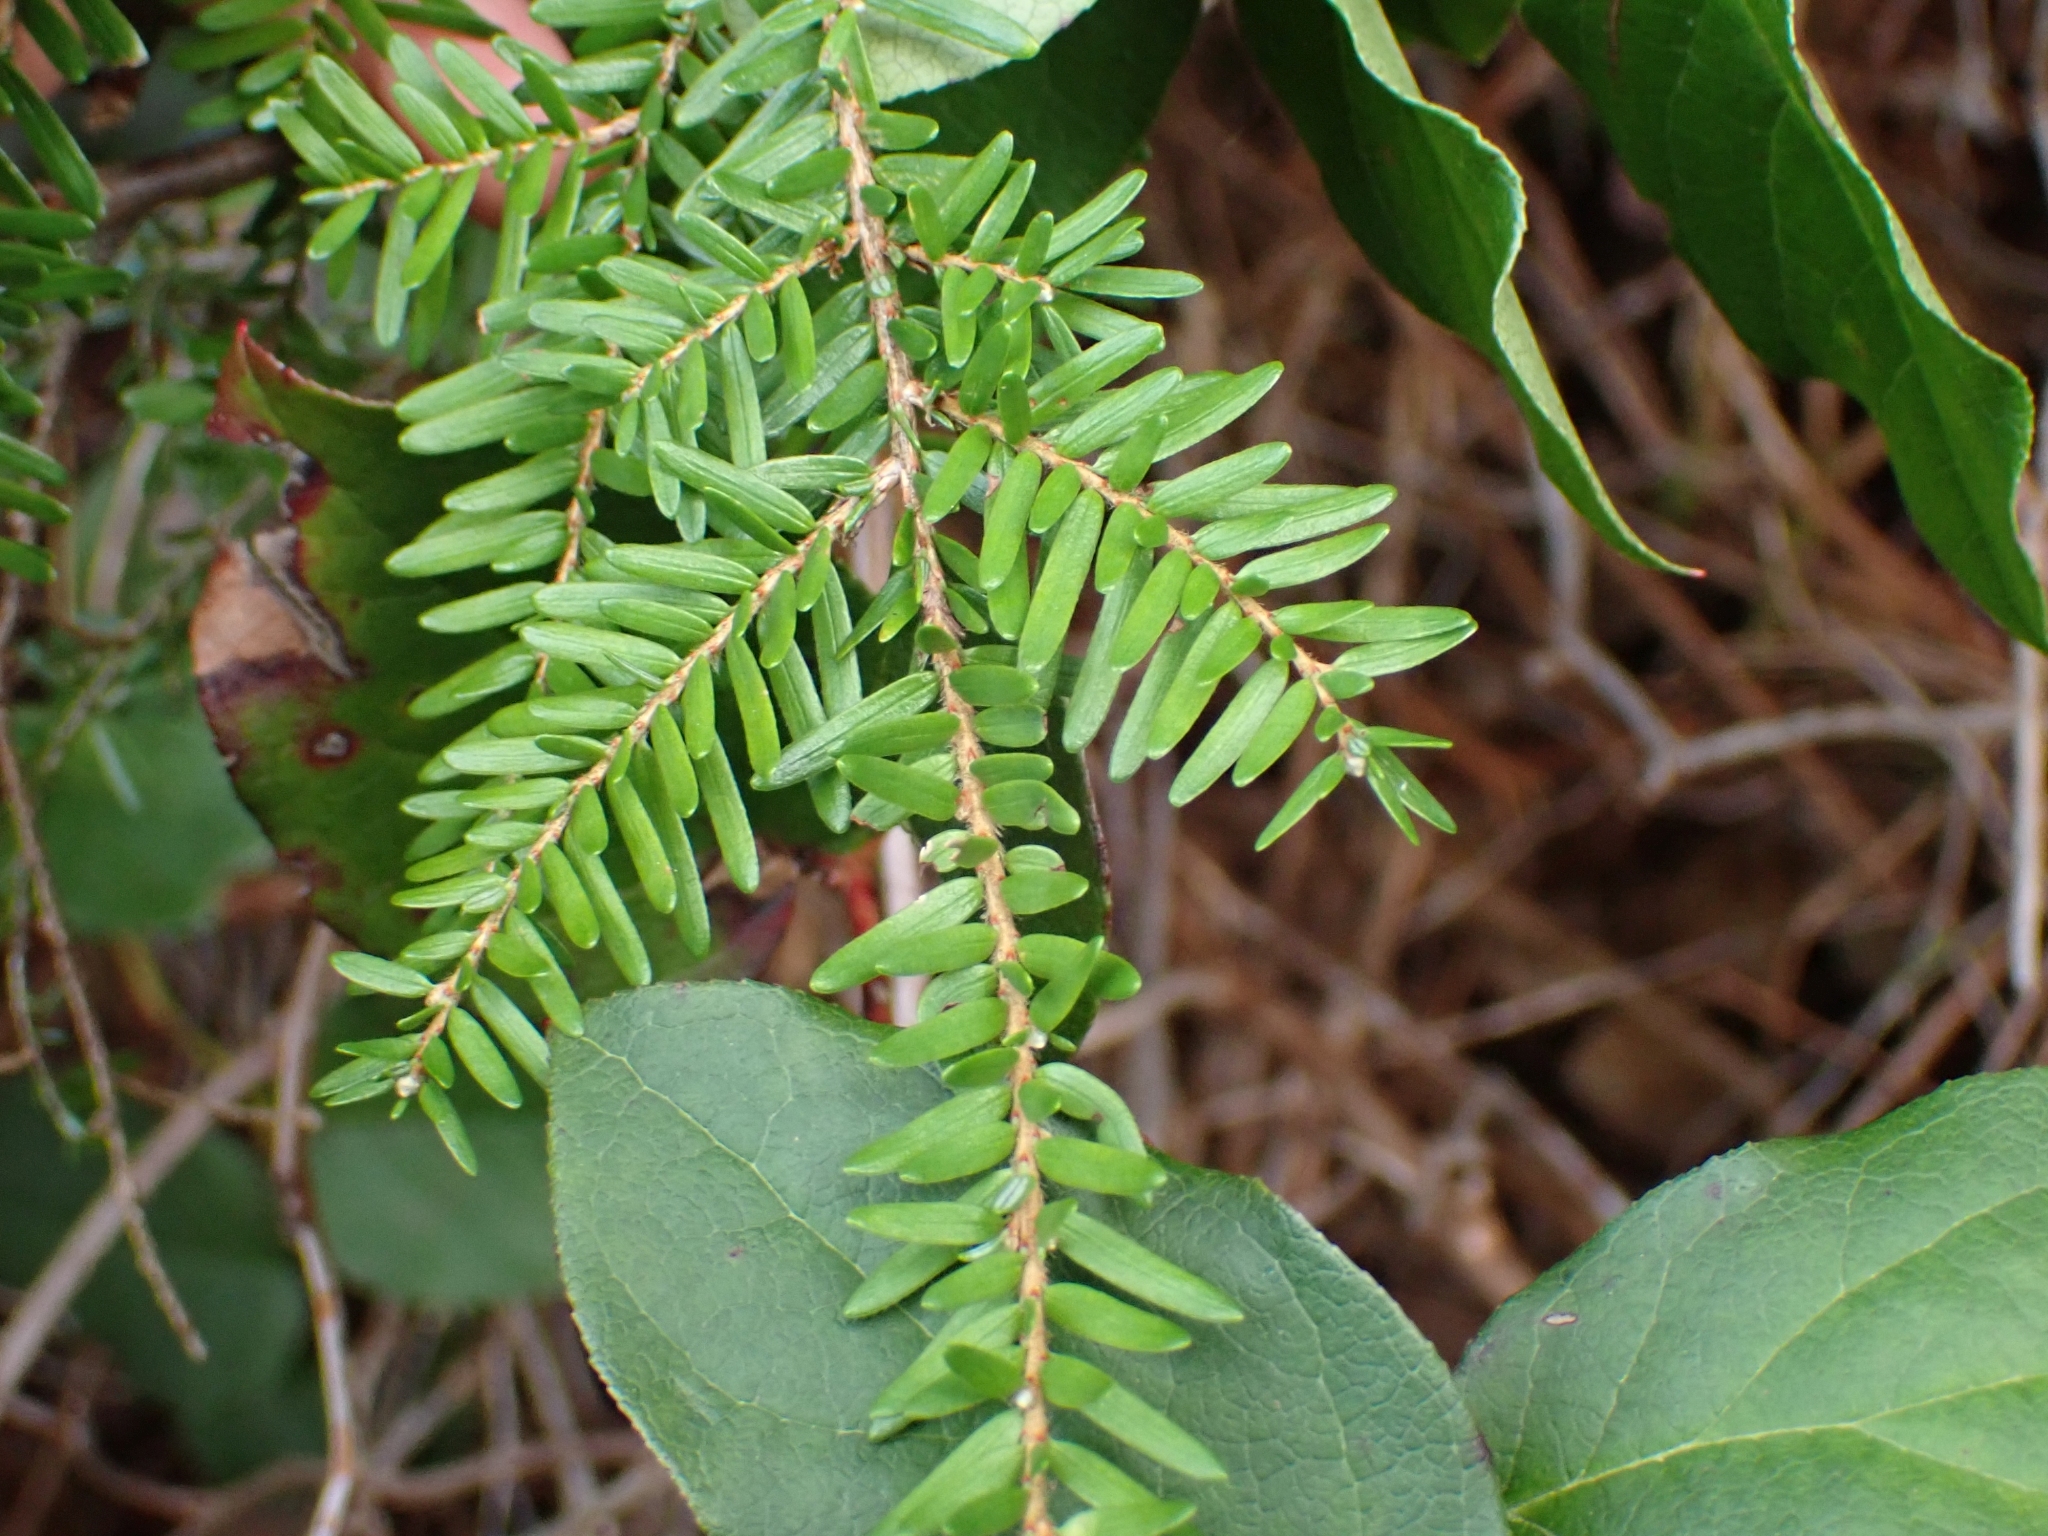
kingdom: Plantae
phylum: Tracheophyta
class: Pinopsida
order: Pinales
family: Pinaceae
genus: Tsuga
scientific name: Tsuga heterophylla
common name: Western hemlock
